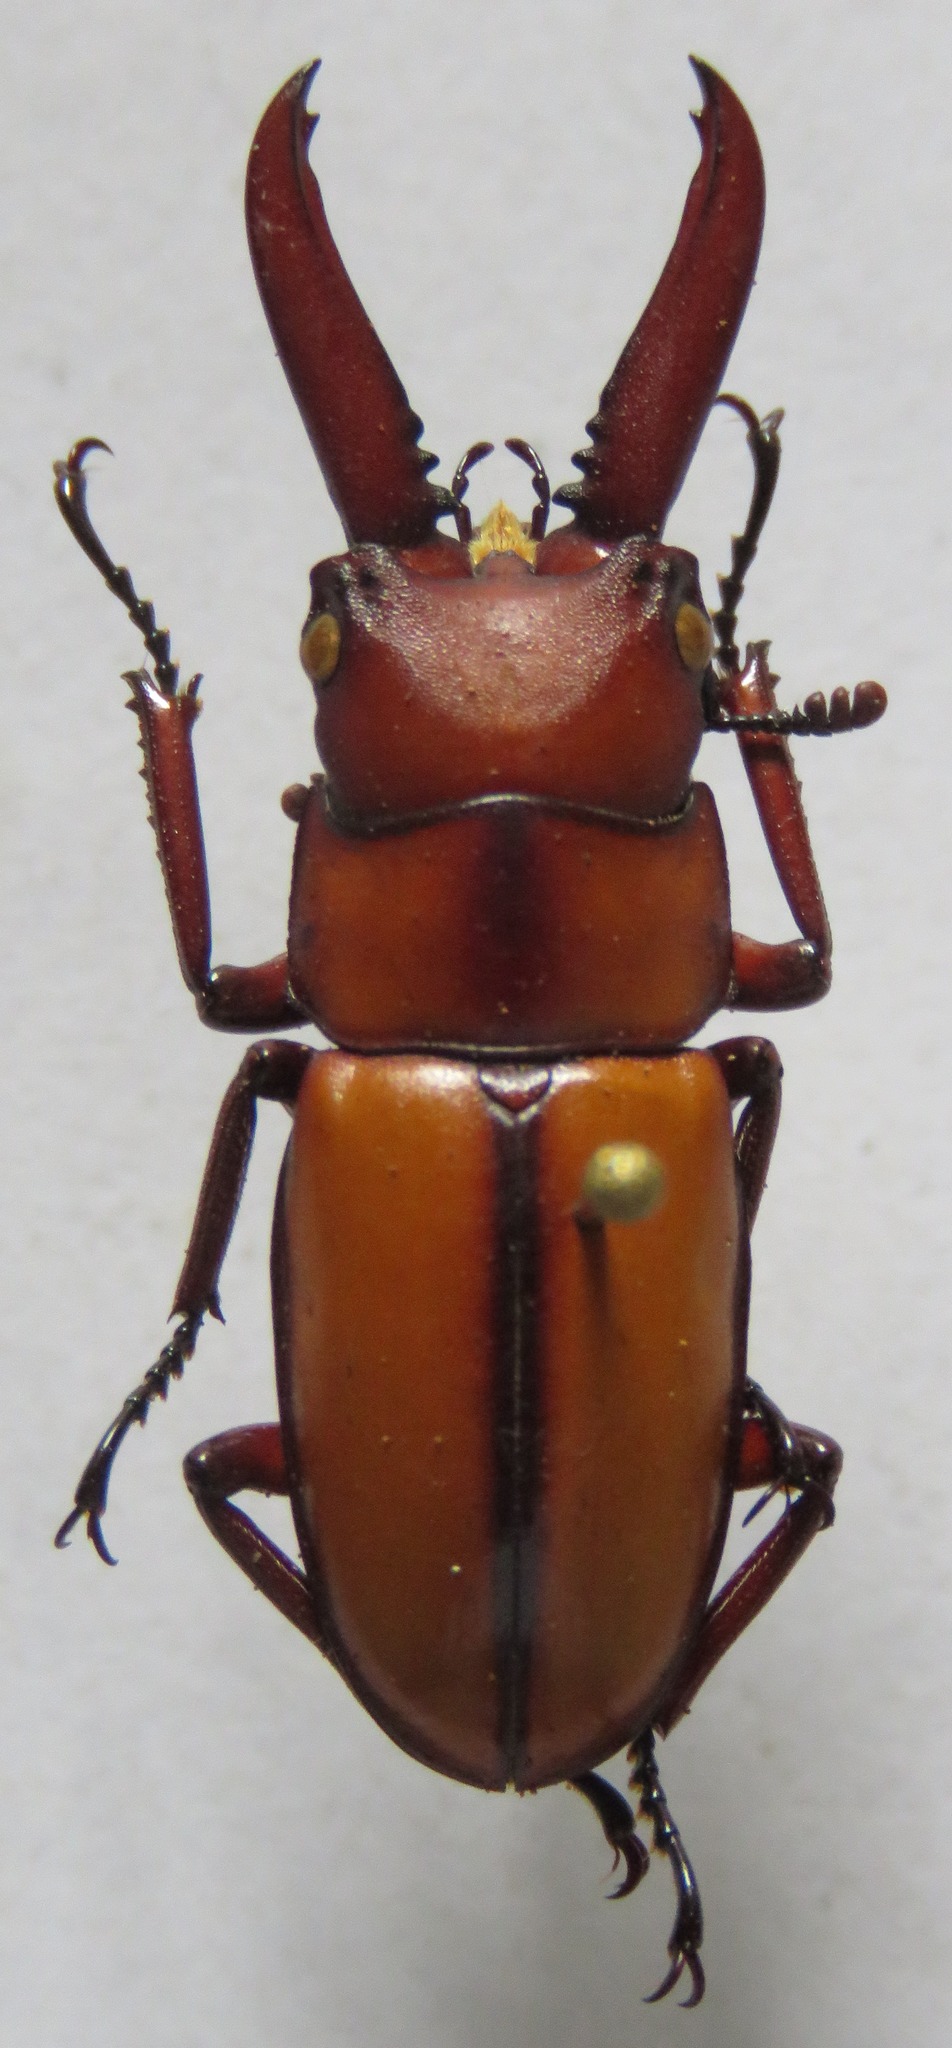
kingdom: Animalia
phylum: Arthropoda
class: Insecta
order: Coleoptera
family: Lucanidae
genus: Prosopocoilus
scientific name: Prosopocoilus mohnikei
